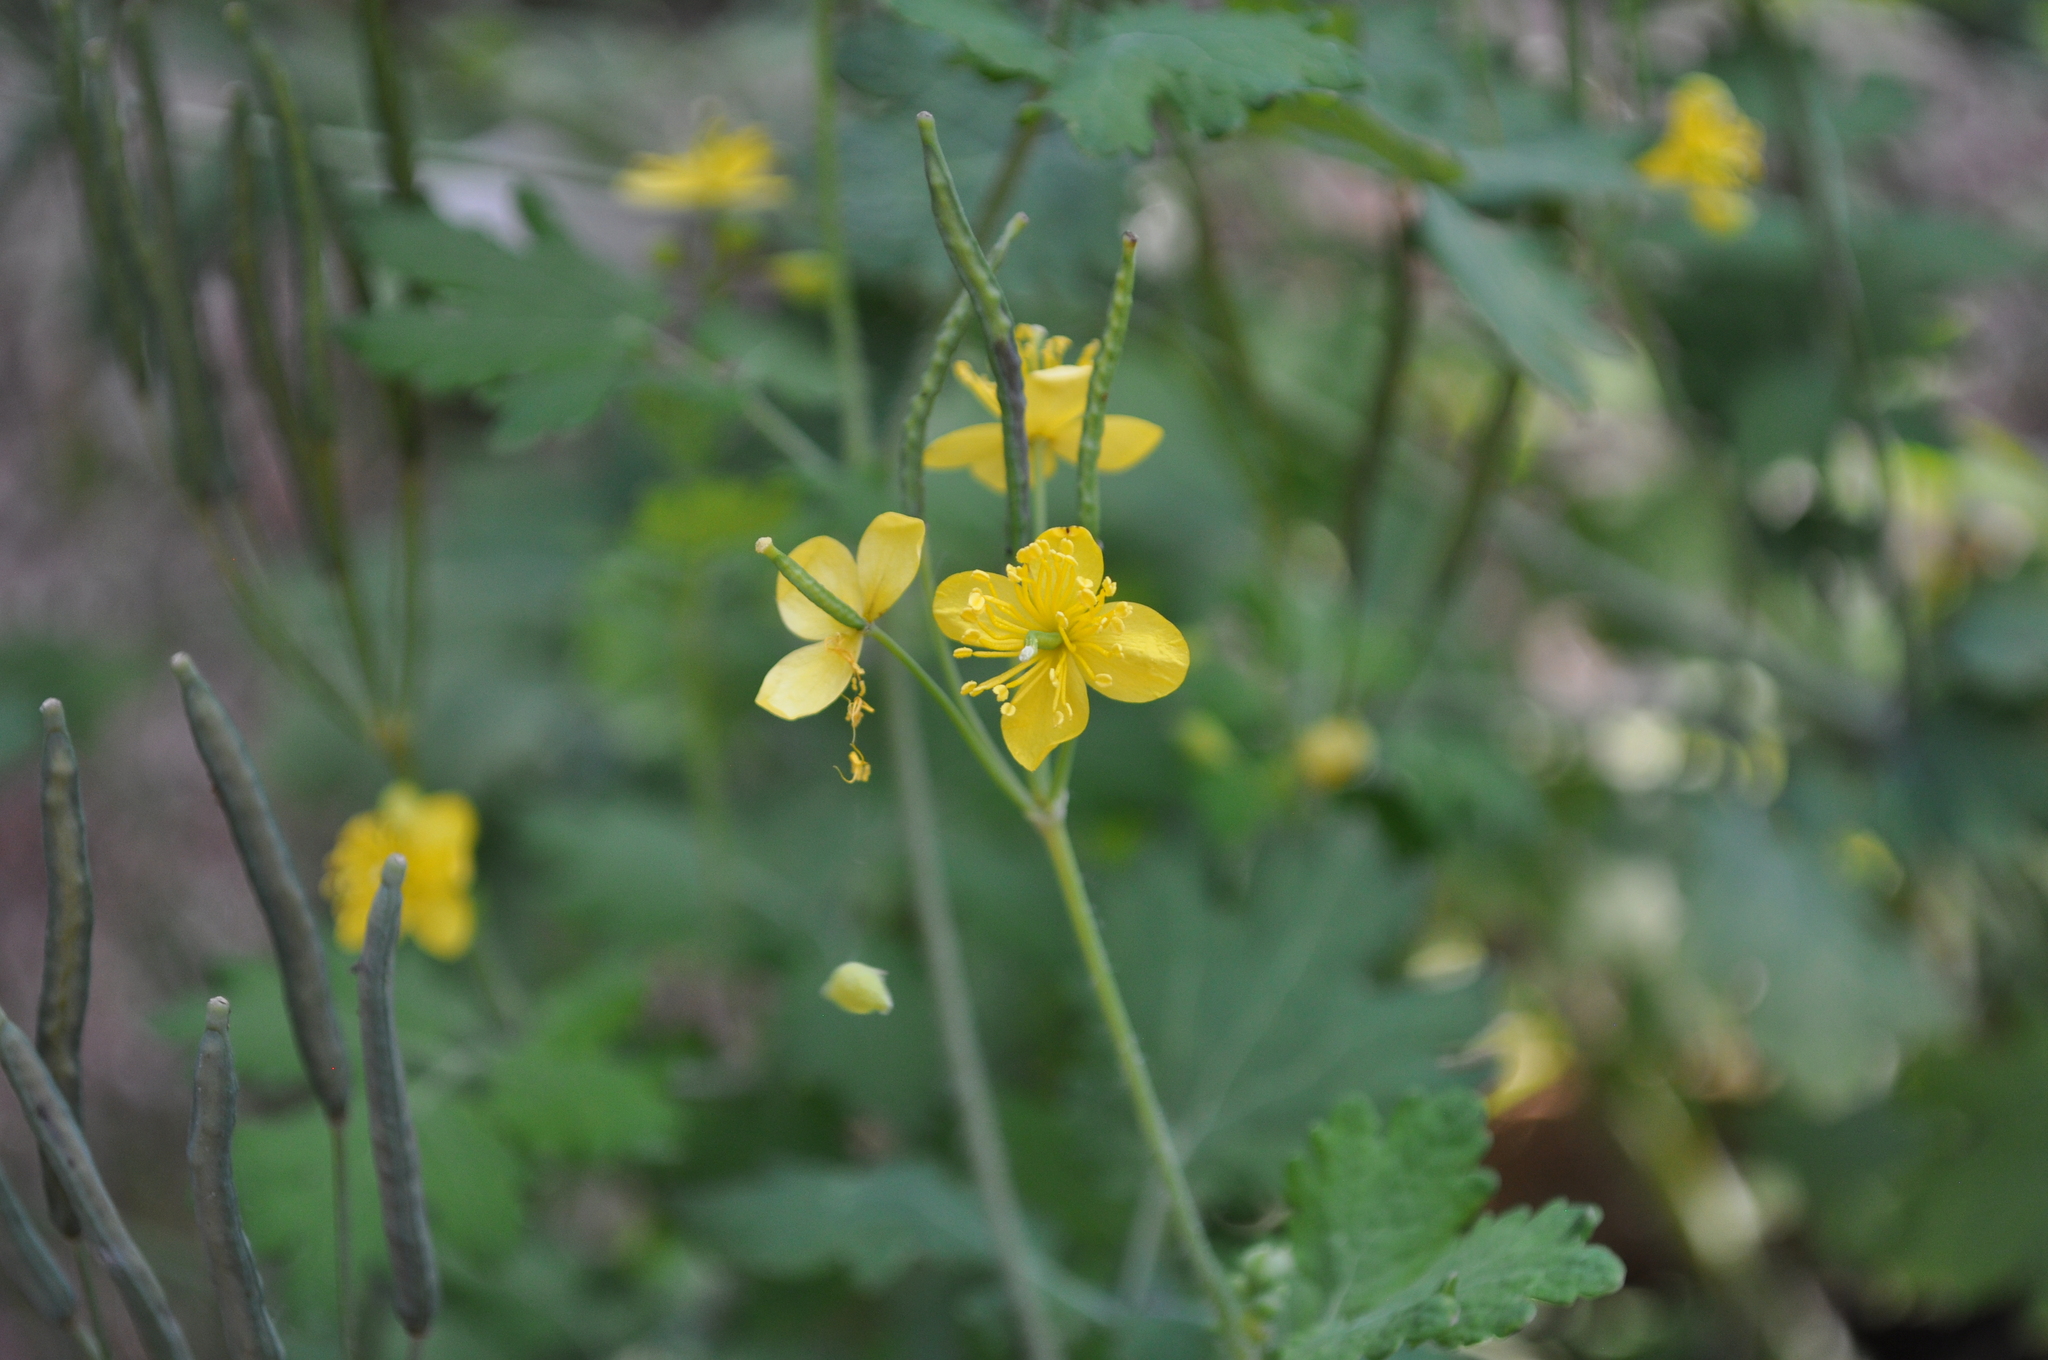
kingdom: Plantae
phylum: Tracheophyta
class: Magnoliopsida
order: Ranunculales
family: Papaveraceae
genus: Chelidonium
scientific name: Chelidonium majus
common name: Greater celandine
